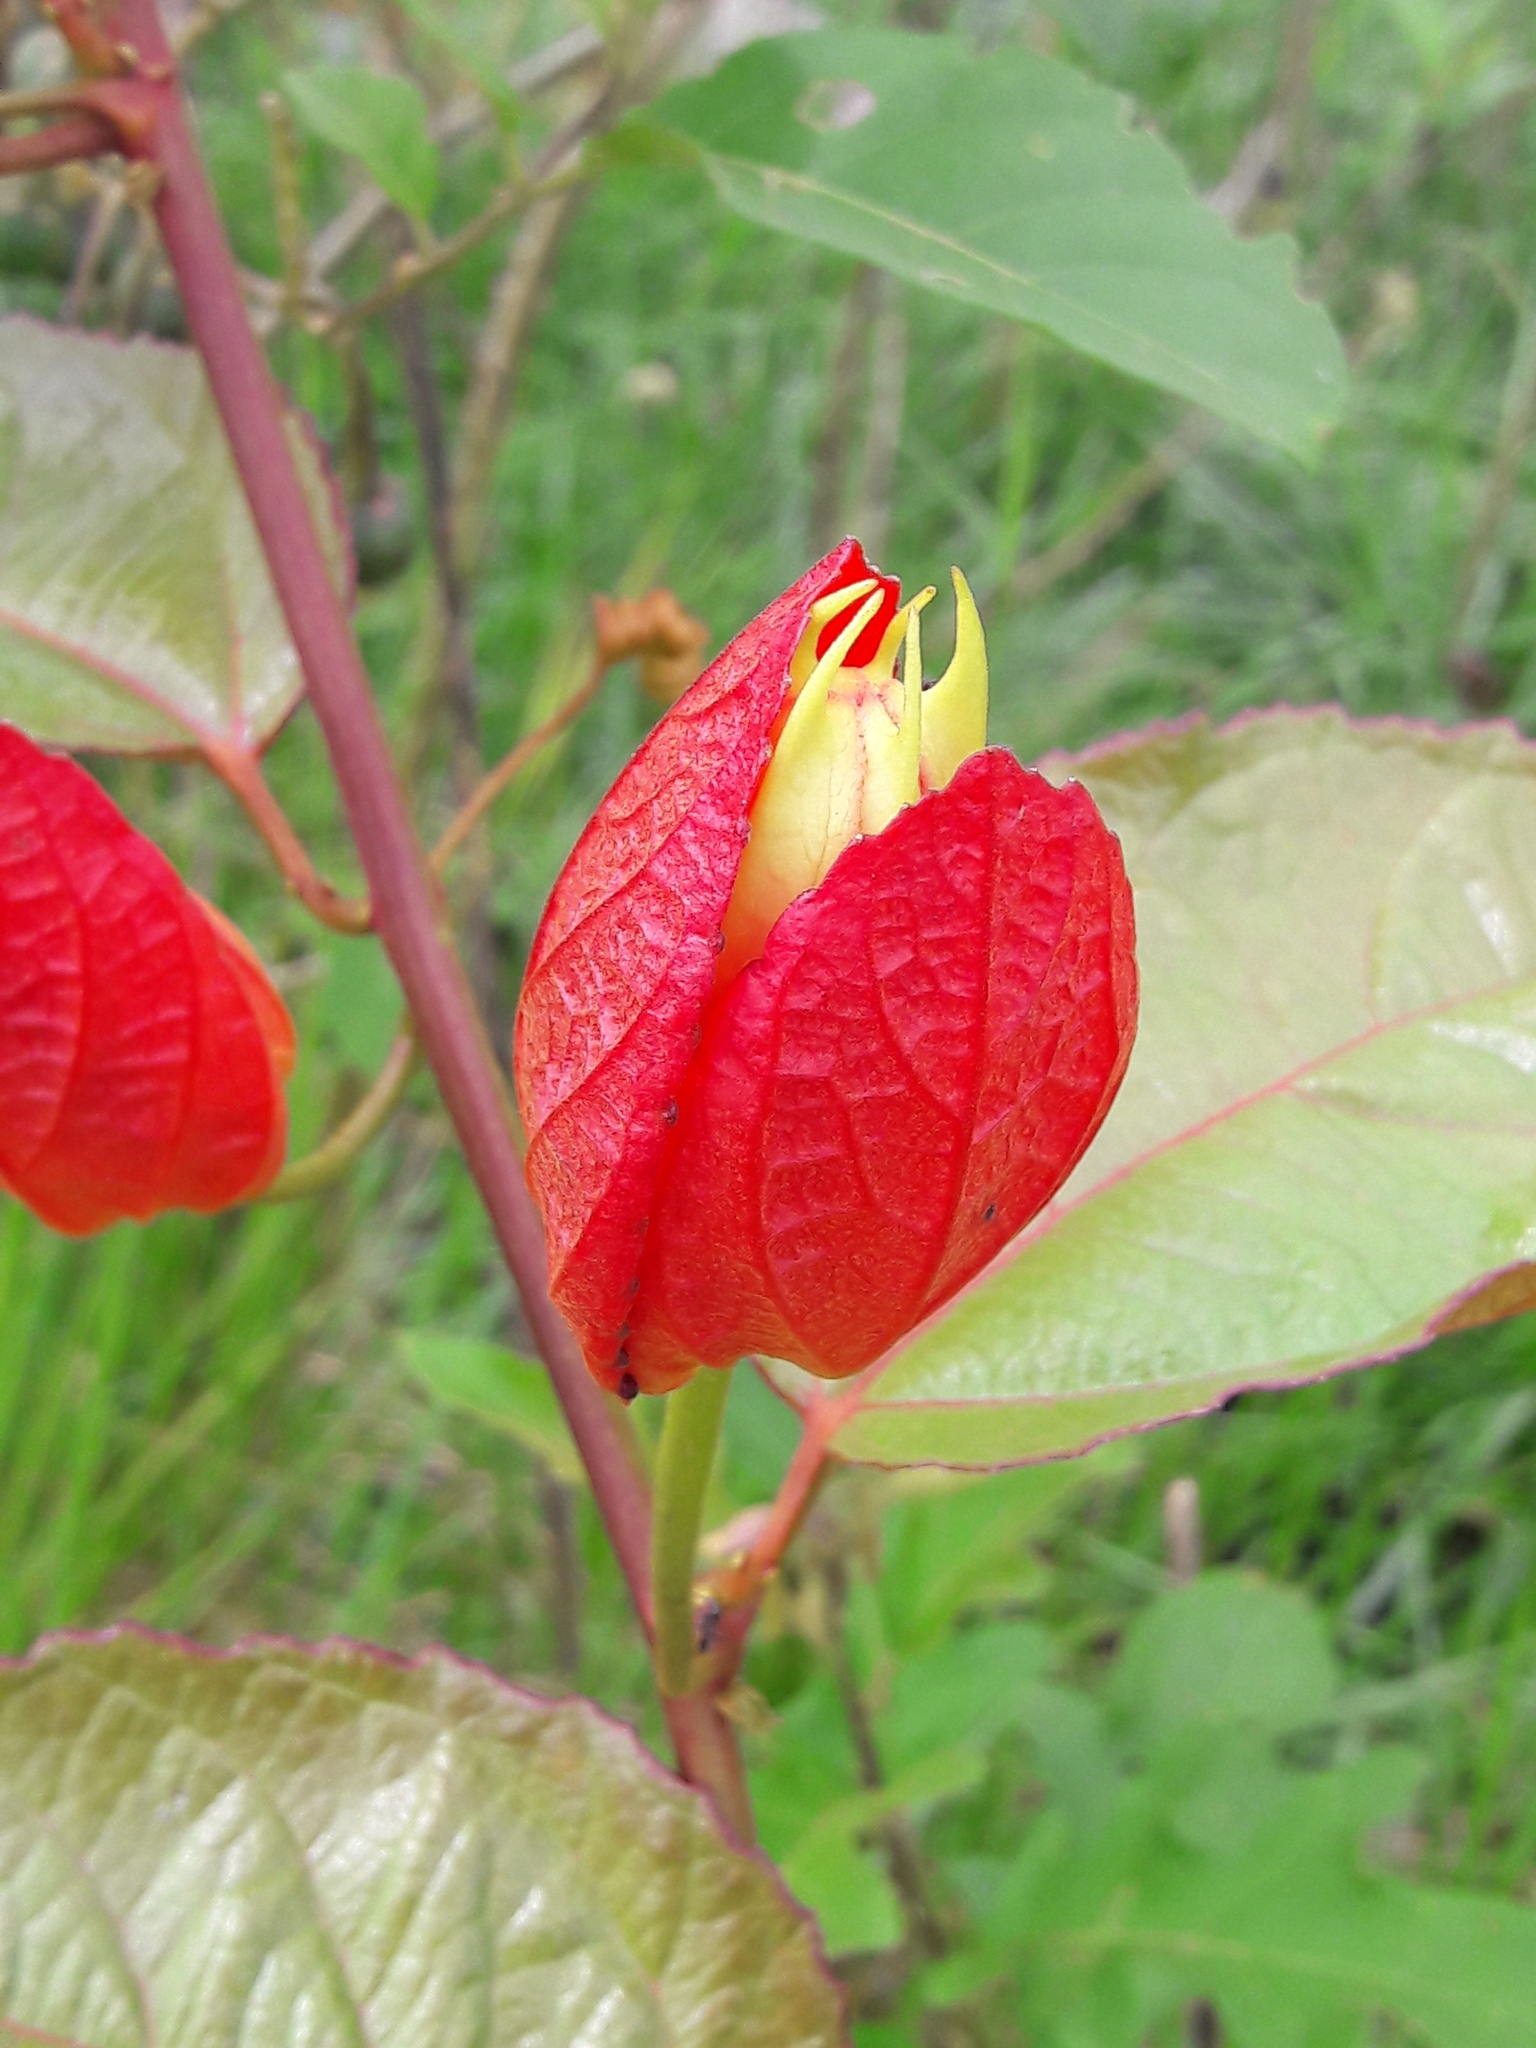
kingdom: Plantae
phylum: Tracheophyta
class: Magnoliopsida
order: Malpighiales
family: Passifloraceae
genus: Passiflora
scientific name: Passiflora coccinea
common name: Scarlet passionflower
